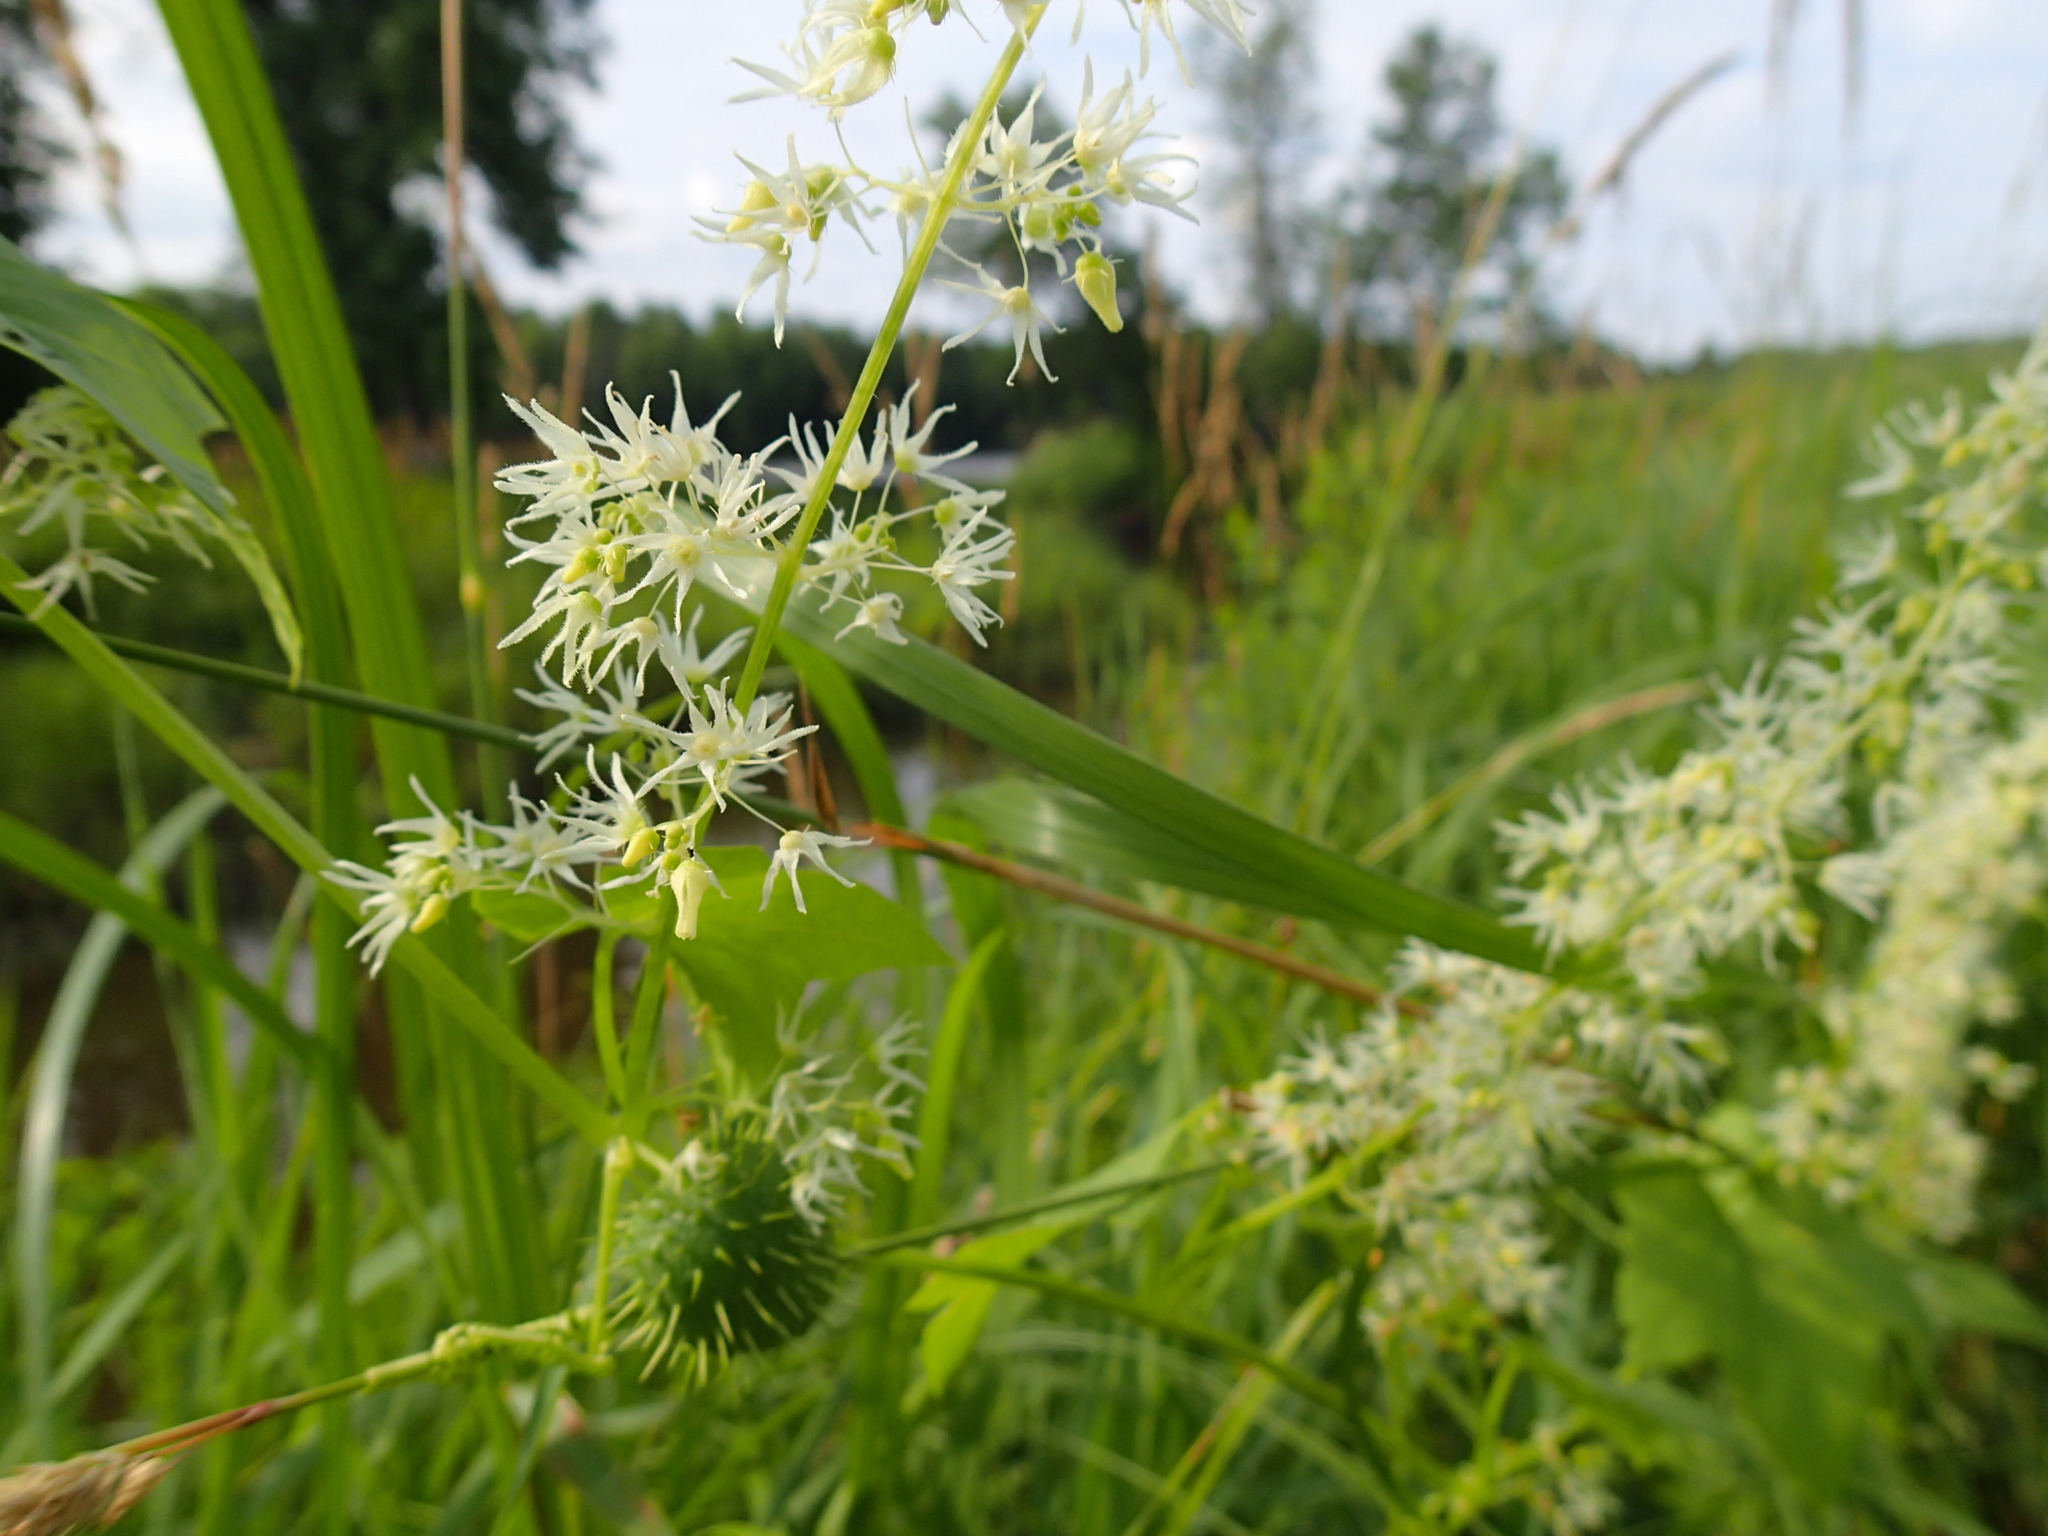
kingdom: Plantae
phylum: Tracheophyta
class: Magnoliopsida
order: Cucurbitales
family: Cucurbitaceae
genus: Echinocystis
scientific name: Echinocystis lobata
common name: Wild cucumber
